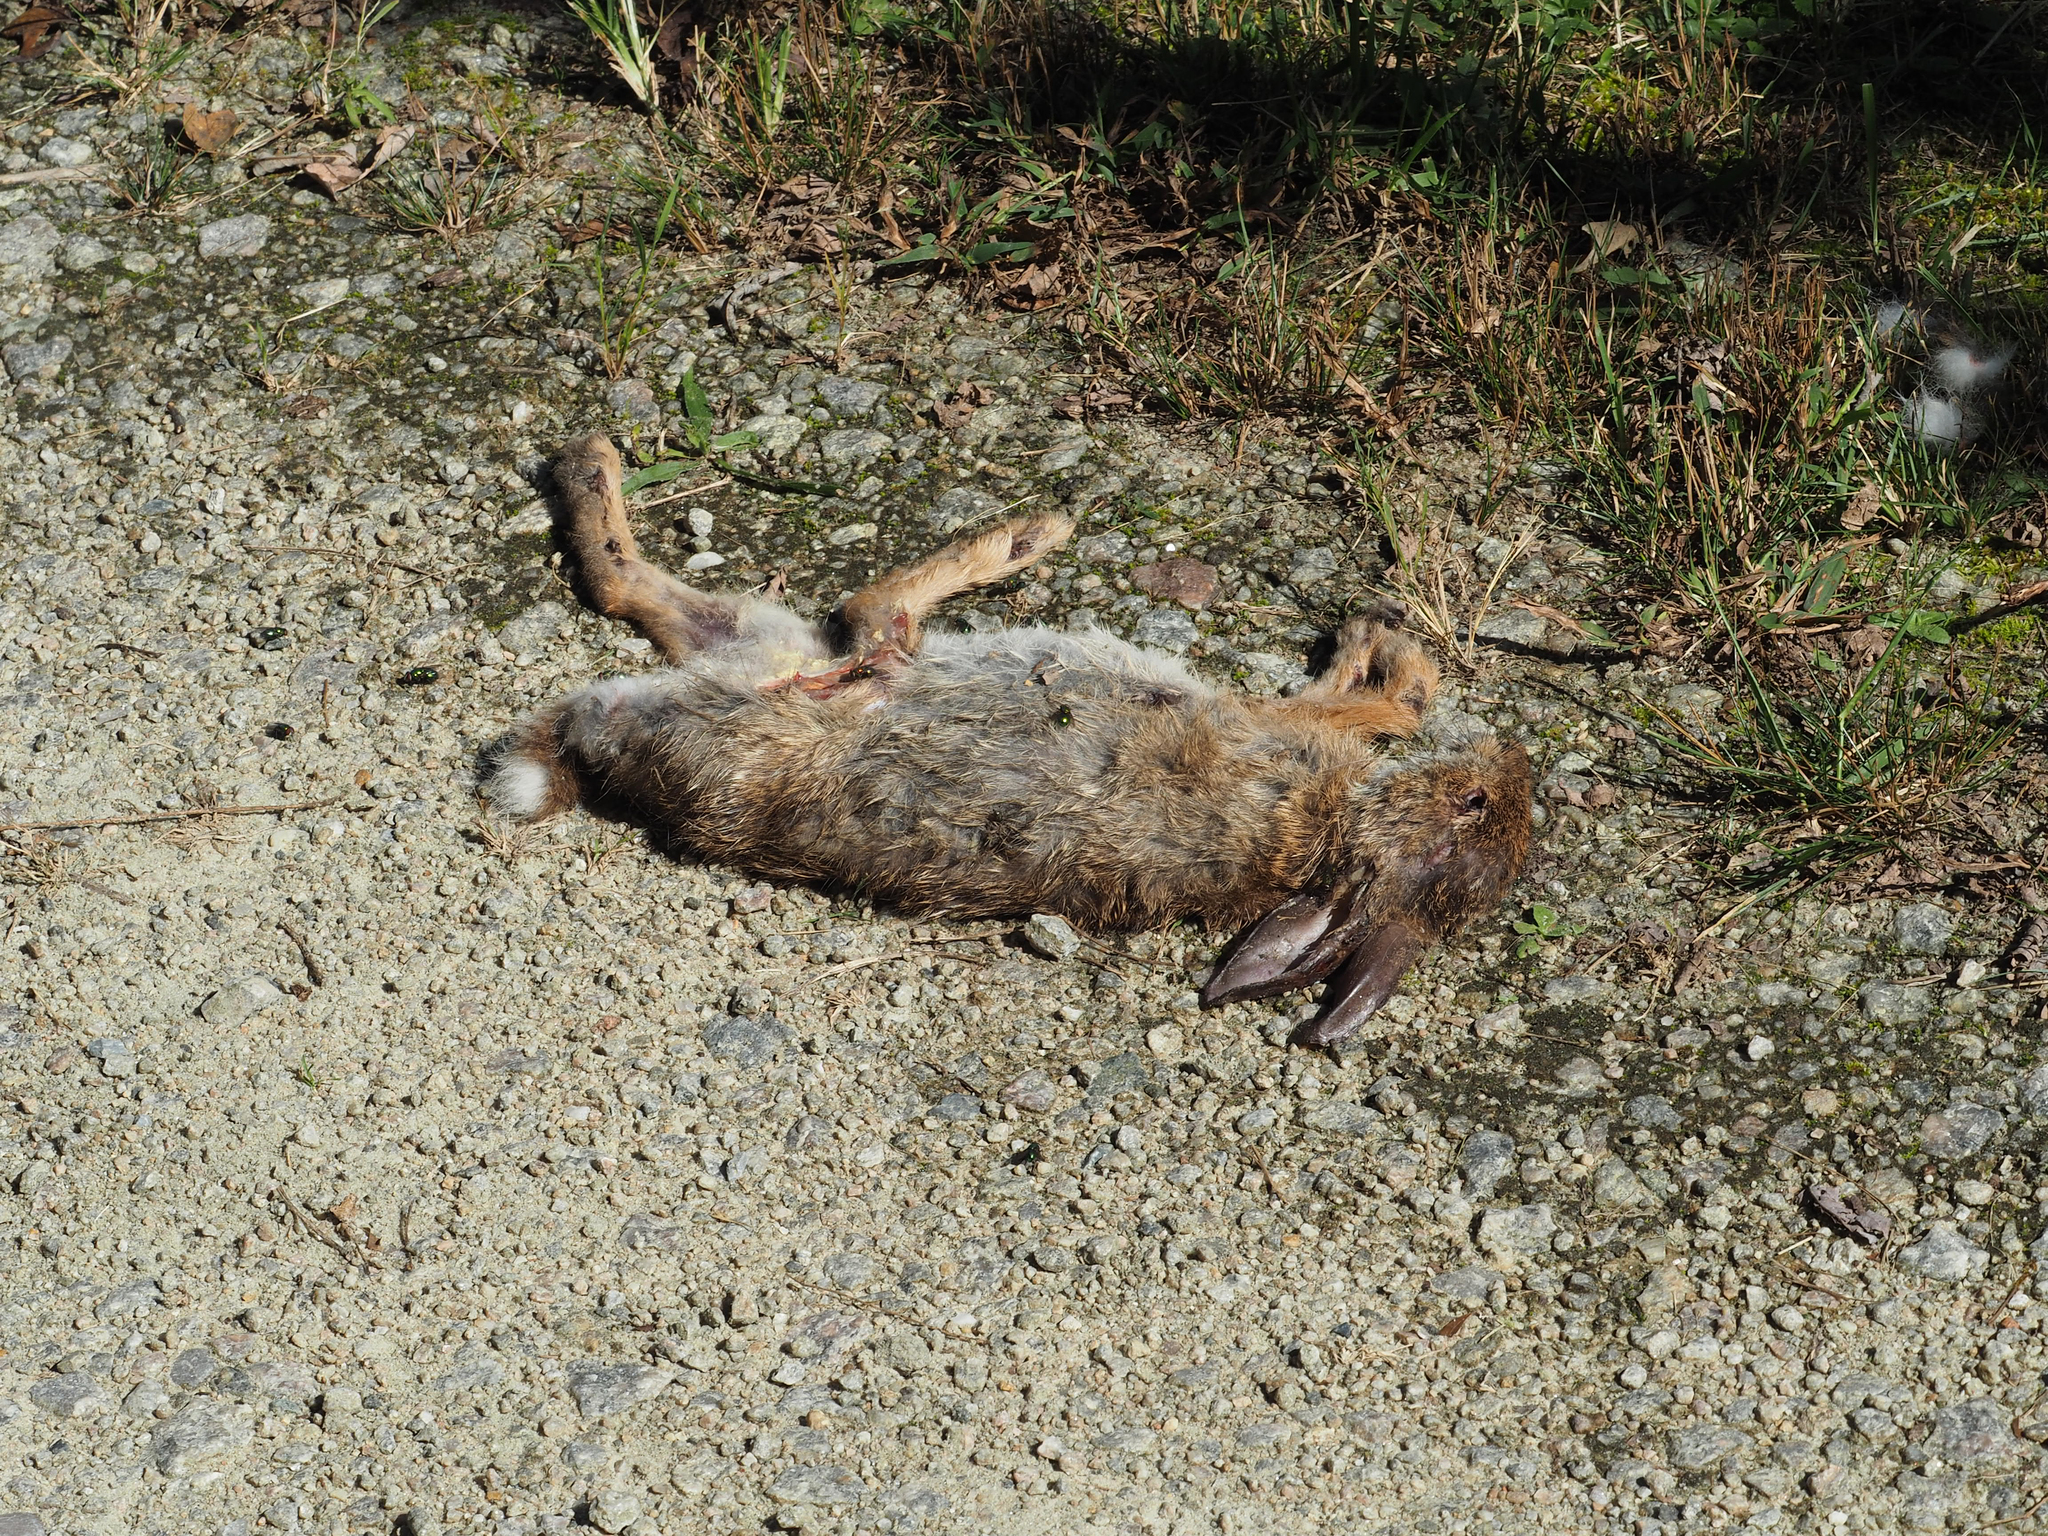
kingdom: Animalia
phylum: Chordata
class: Mammalia
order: Lagomorpha
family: Leporidae
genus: Sylvilagus
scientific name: Sylvilagus floridanus
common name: Eastern cottontail
